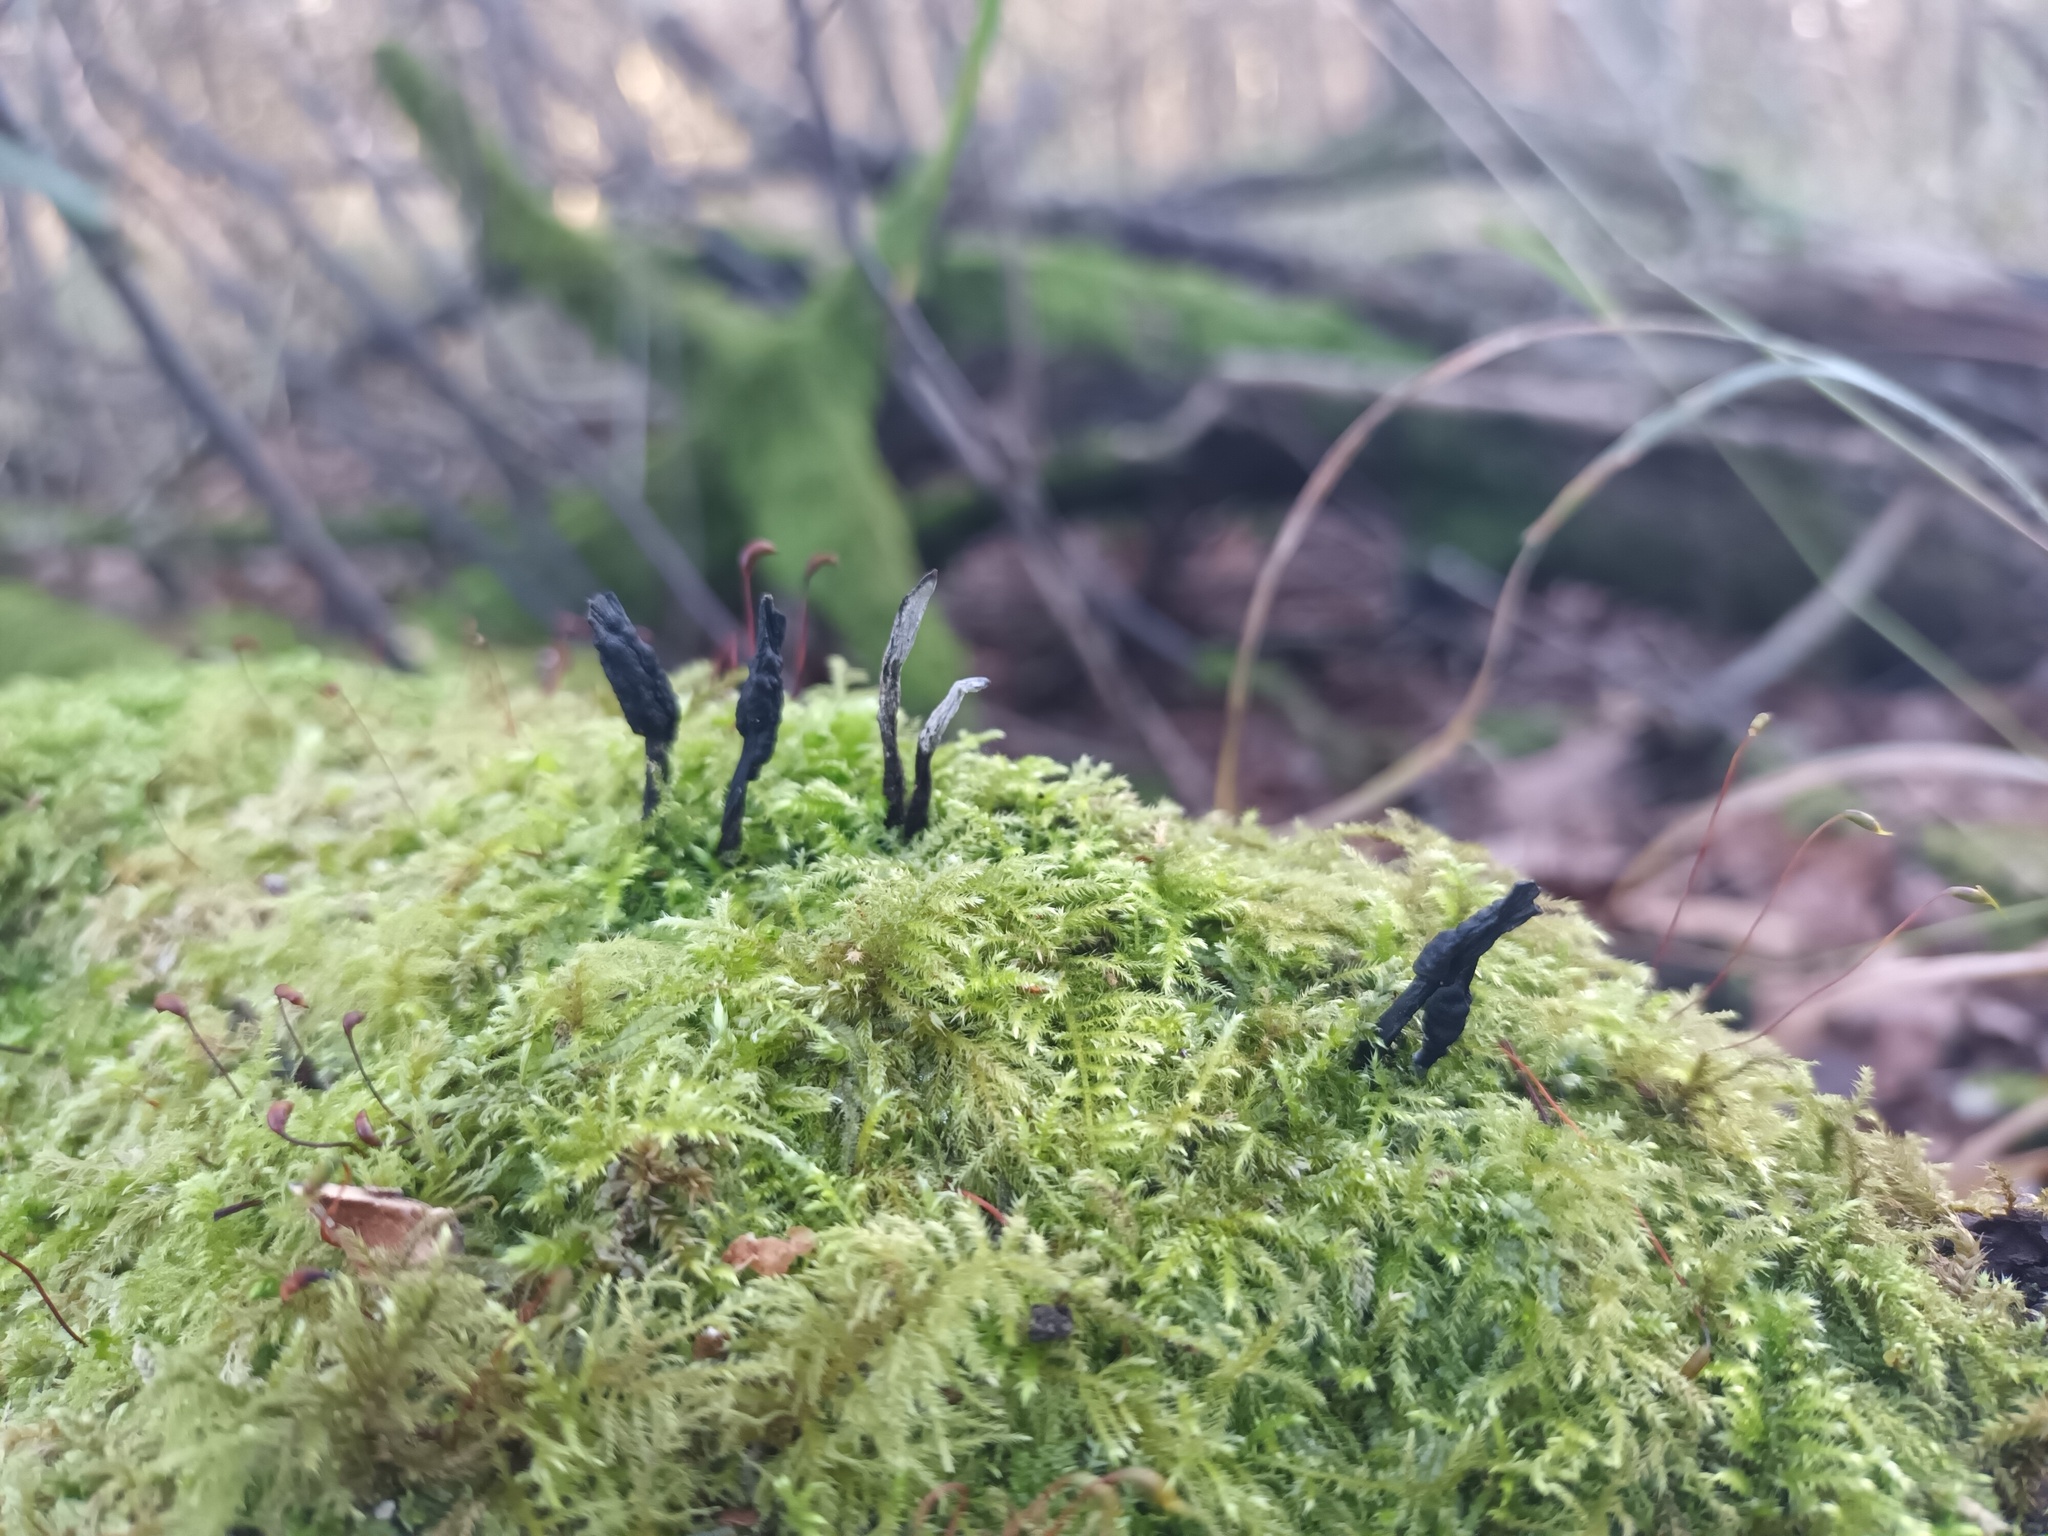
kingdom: Fungi
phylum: Ascomycota
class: Sordariomycetes
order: Xylariales
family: Xylariaceae
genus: Xylaria
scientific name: Xylaria hypoxylon
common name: Candle-snuff fungus
